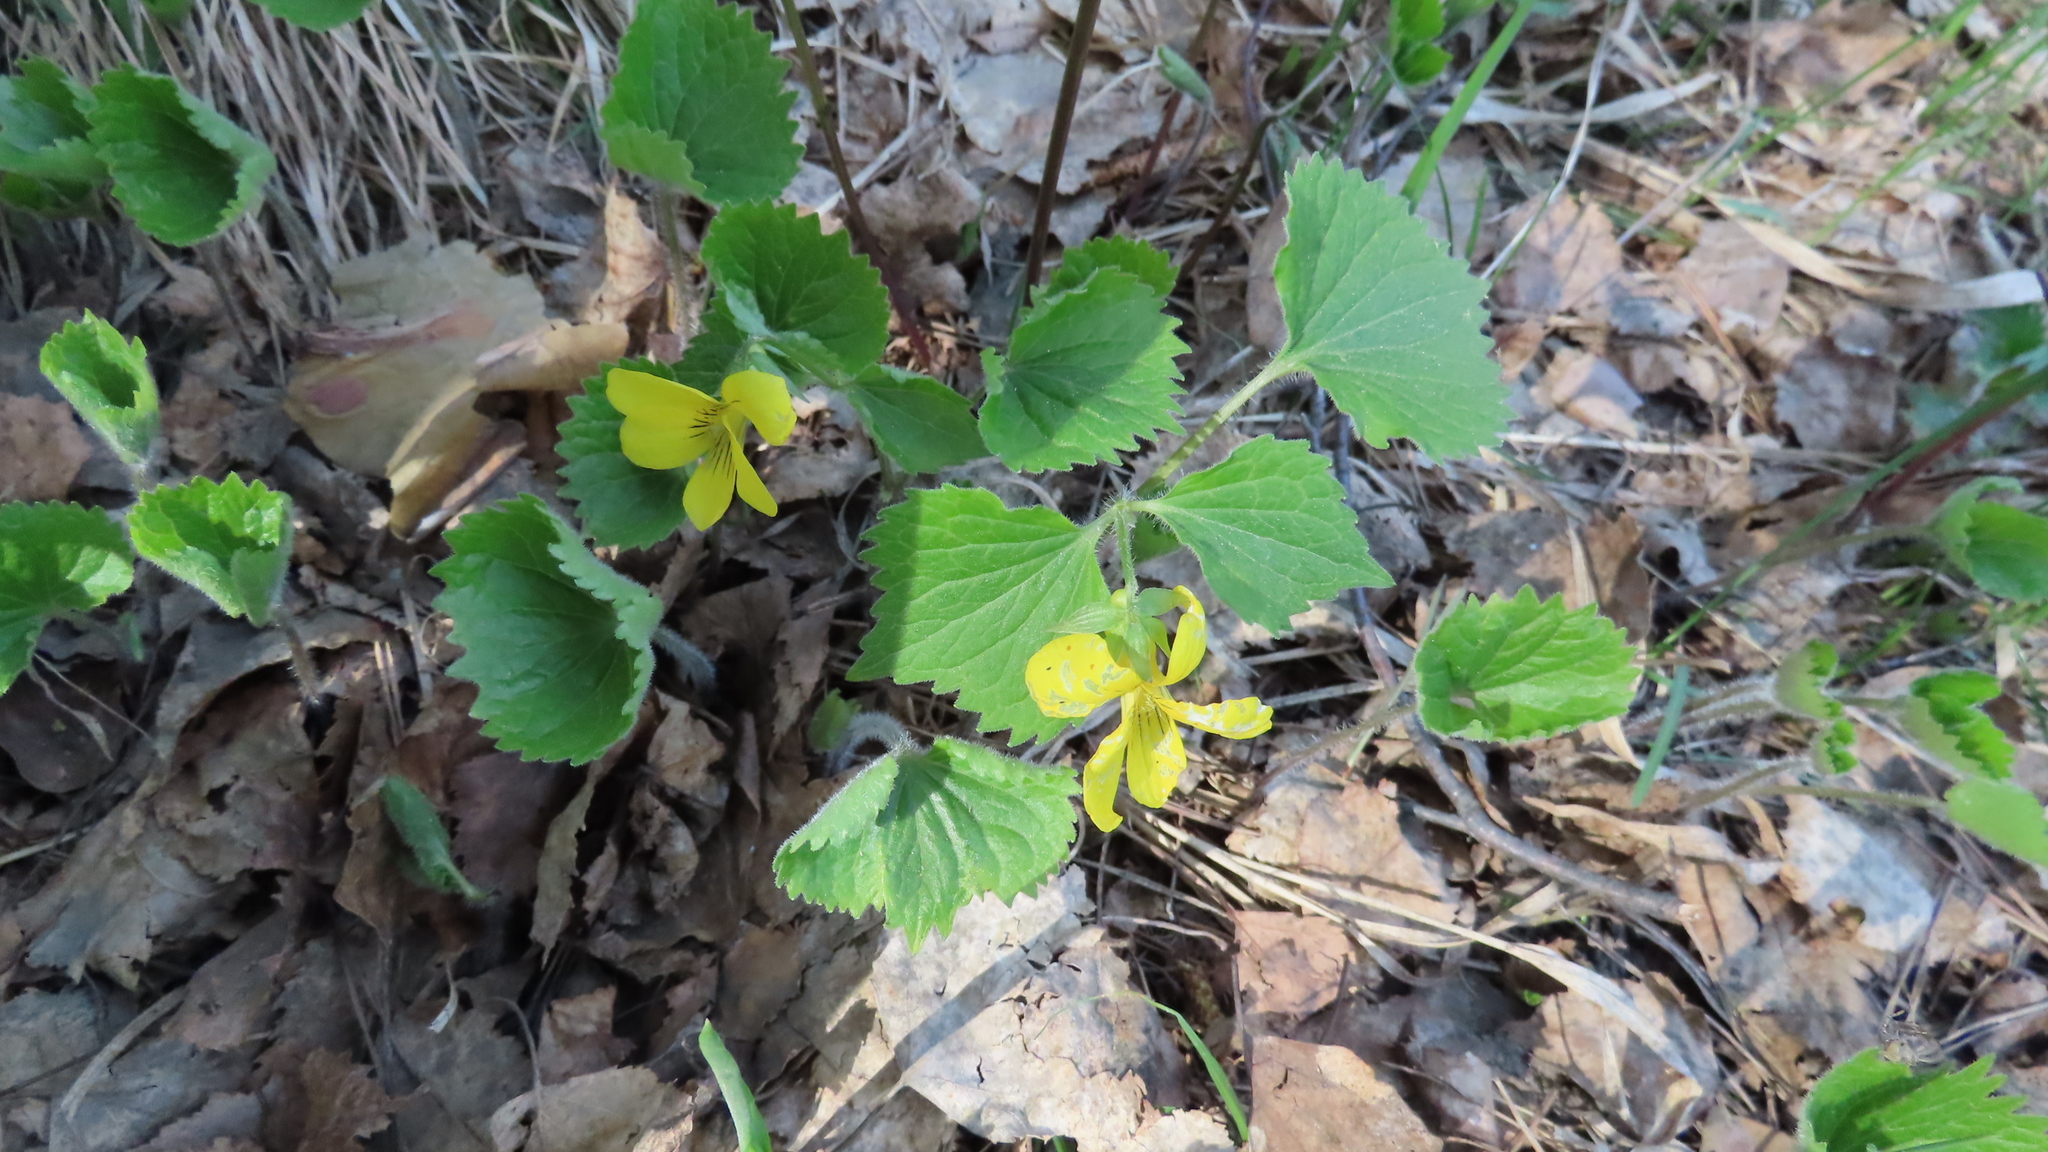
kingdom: Plantae
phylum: Tracheophyta
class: Magnoliopsida
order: Malpighiales
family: Violaceae
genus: Viola
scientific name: Viola uniflora
